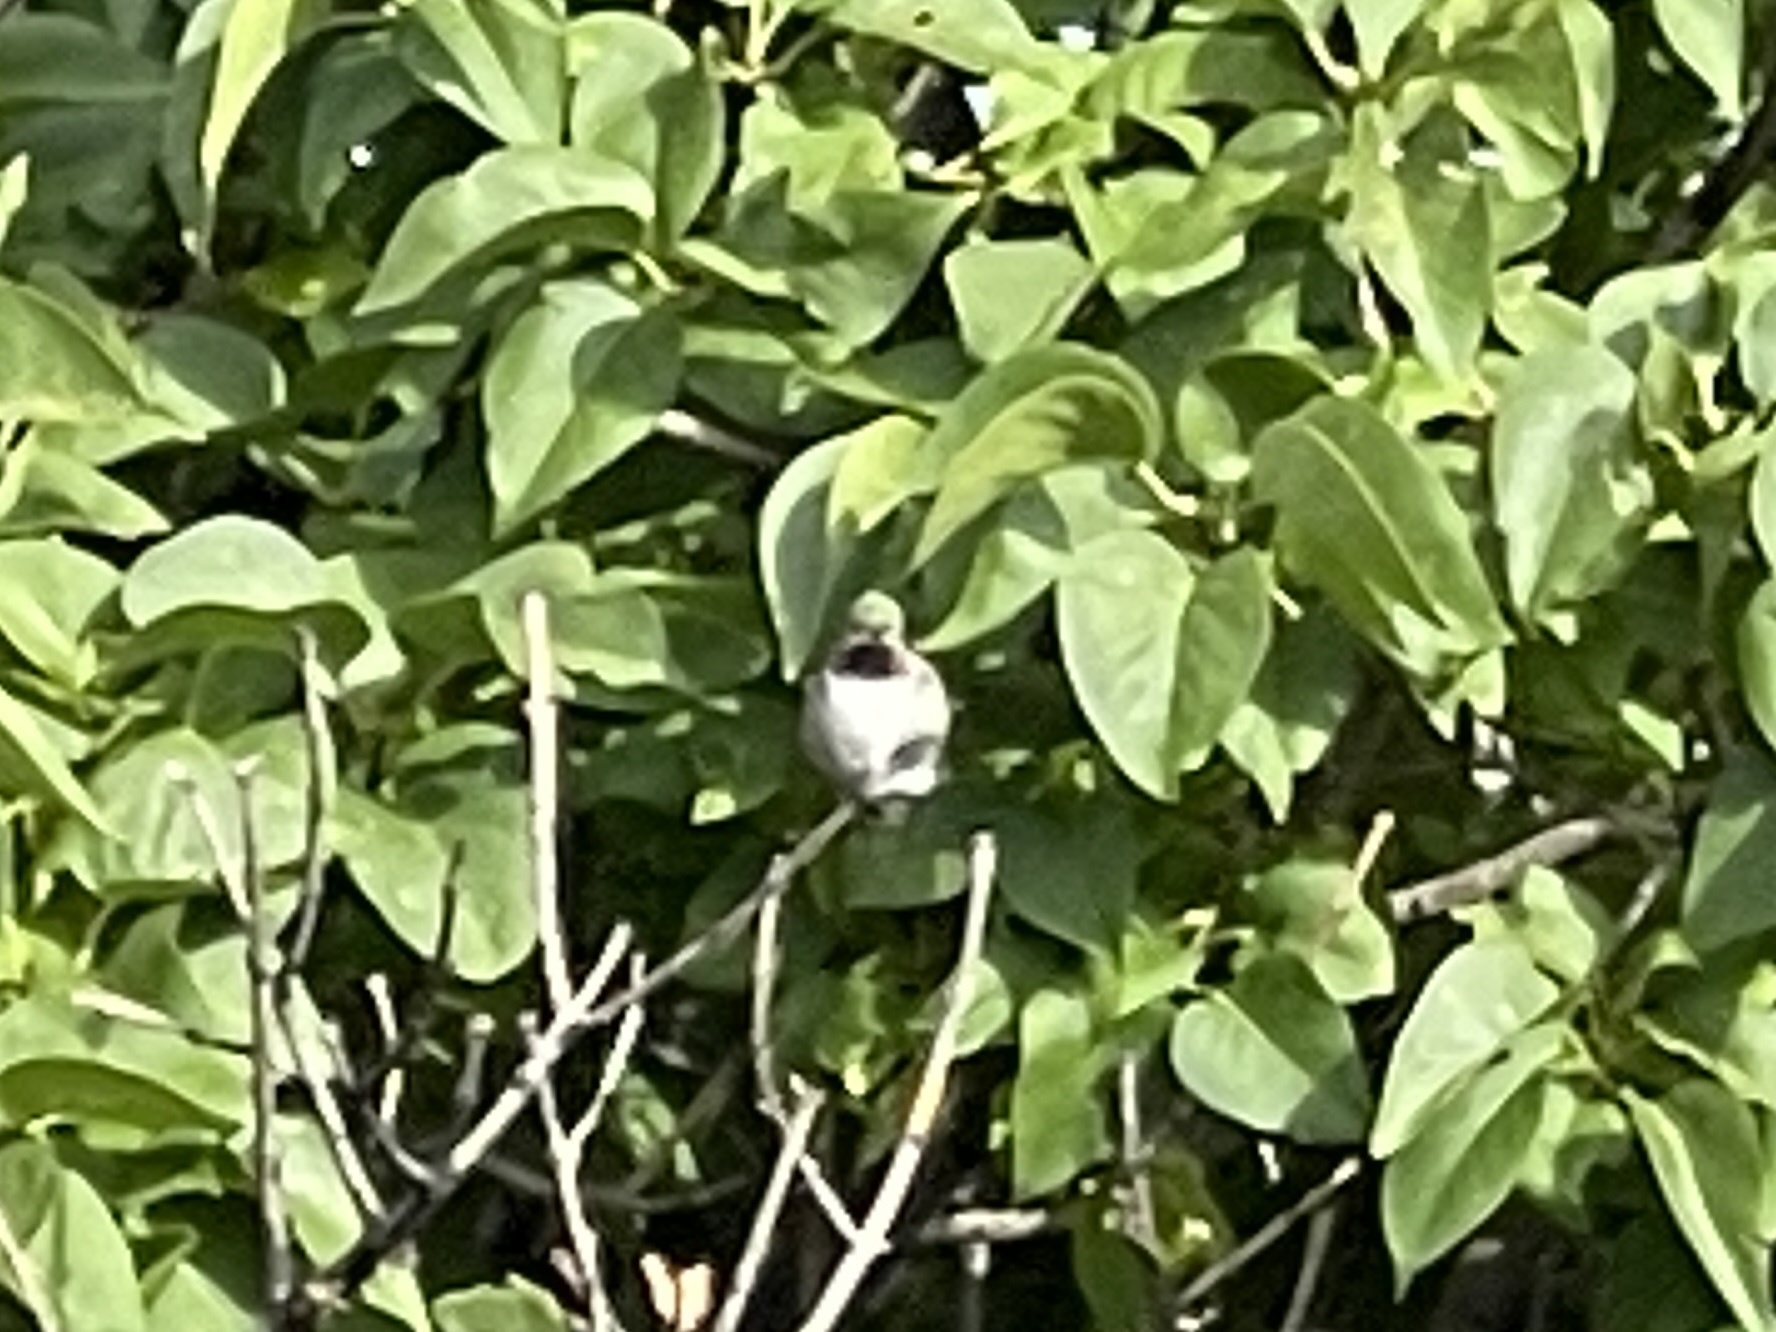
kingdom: Animalia
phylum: Chordata
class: Aves
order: Apodiformes
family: Trochilidae
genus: Selasphorus
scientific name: Selasphorus platycercus
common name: Broad-tailed hummingbird
